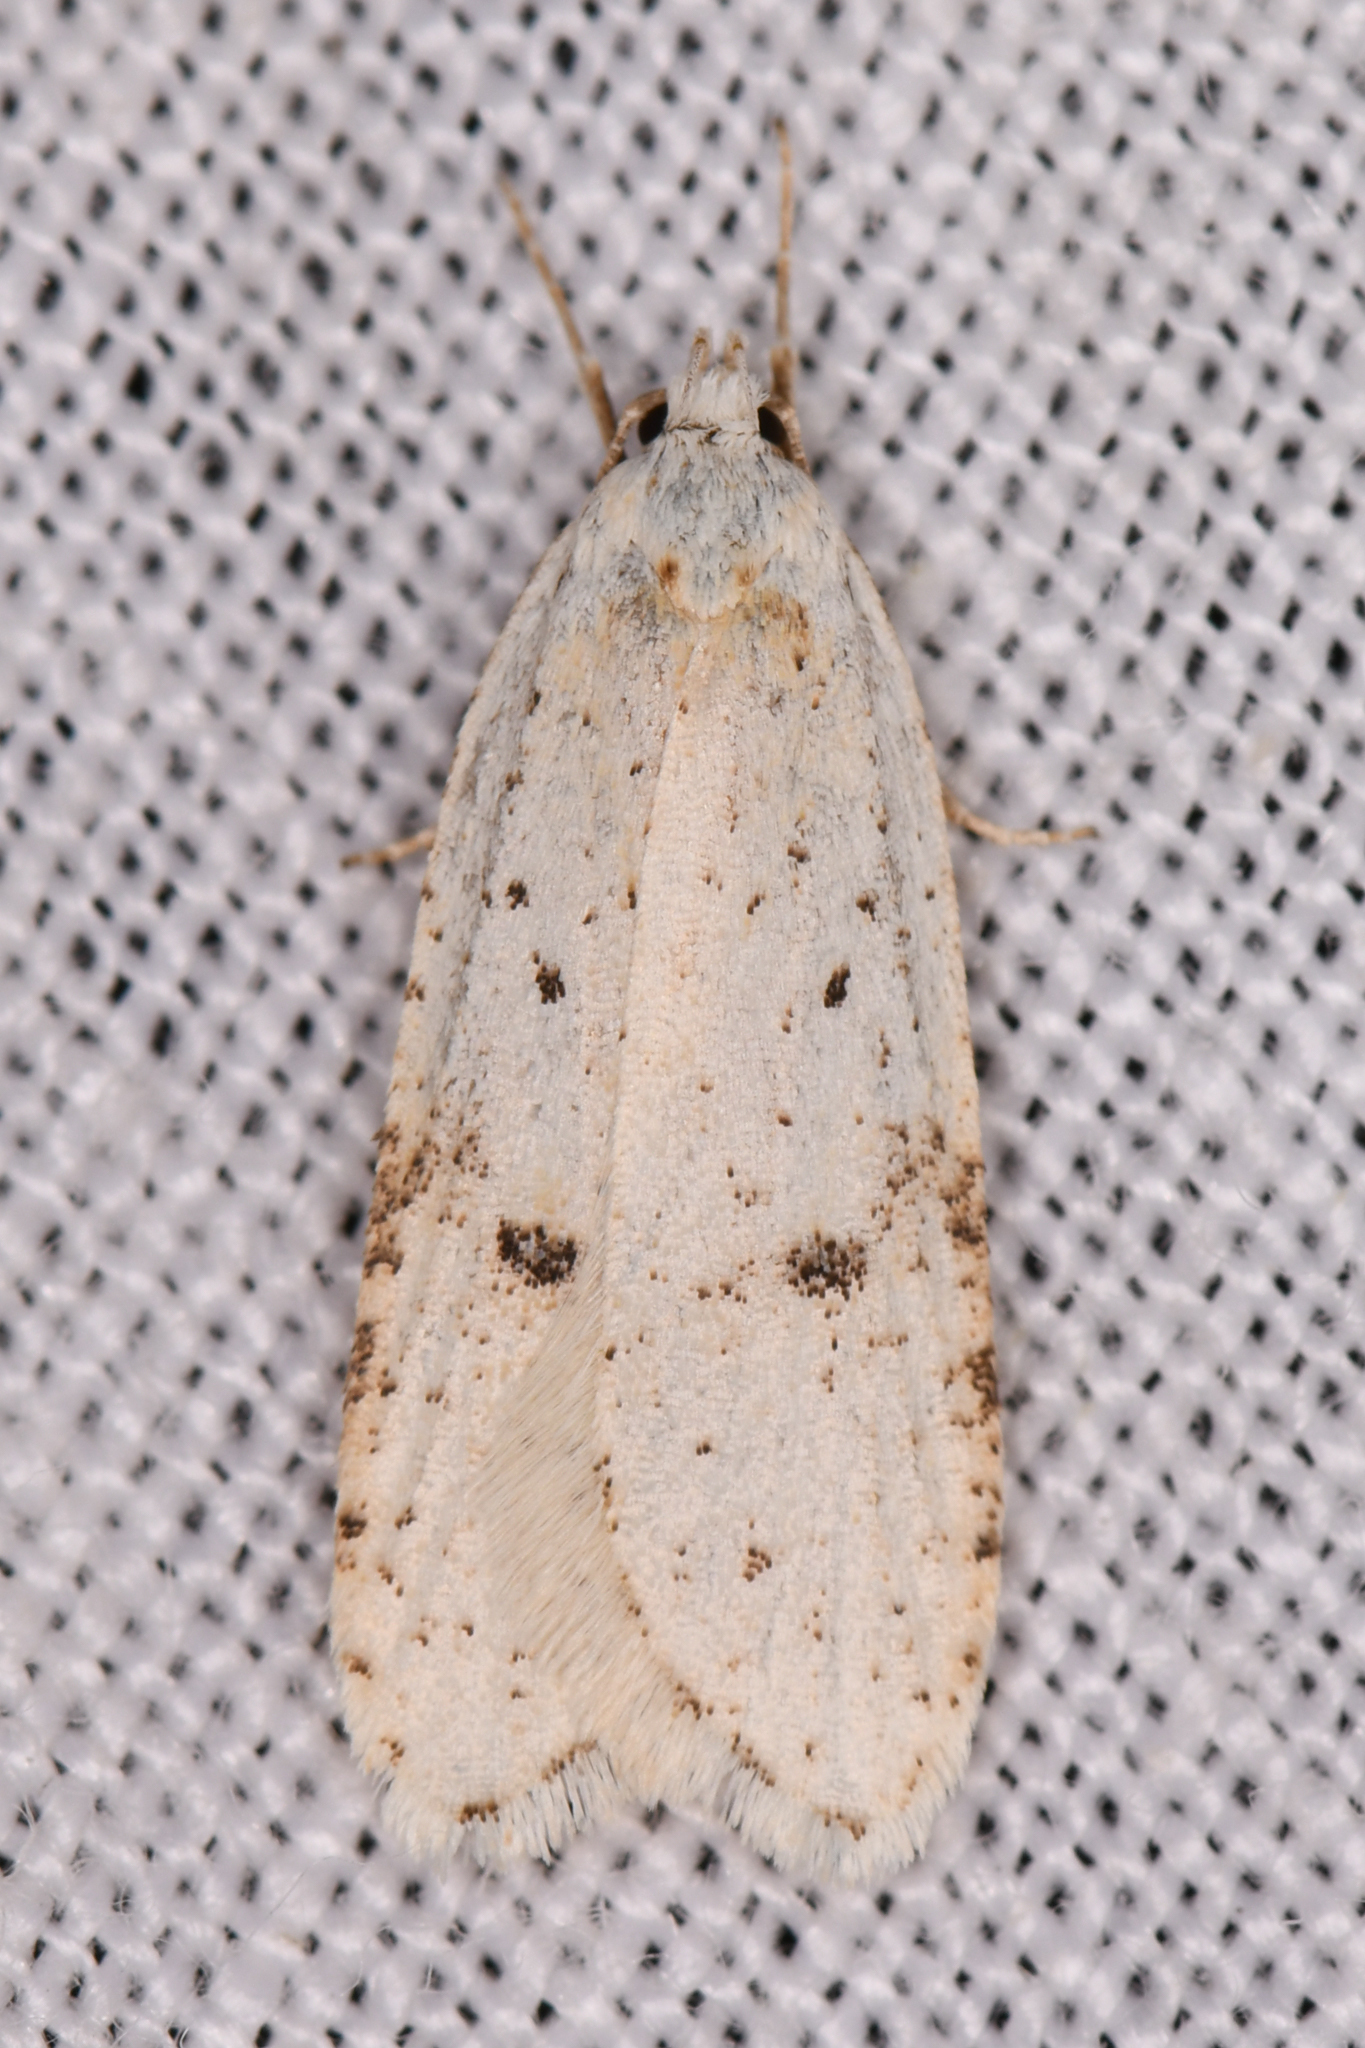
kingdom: Animalia
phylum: Arthropoda
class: Insecta
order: Lepidoptera
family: Depressariidae
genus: Exaeretia
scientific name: Exaeretia nivalis
